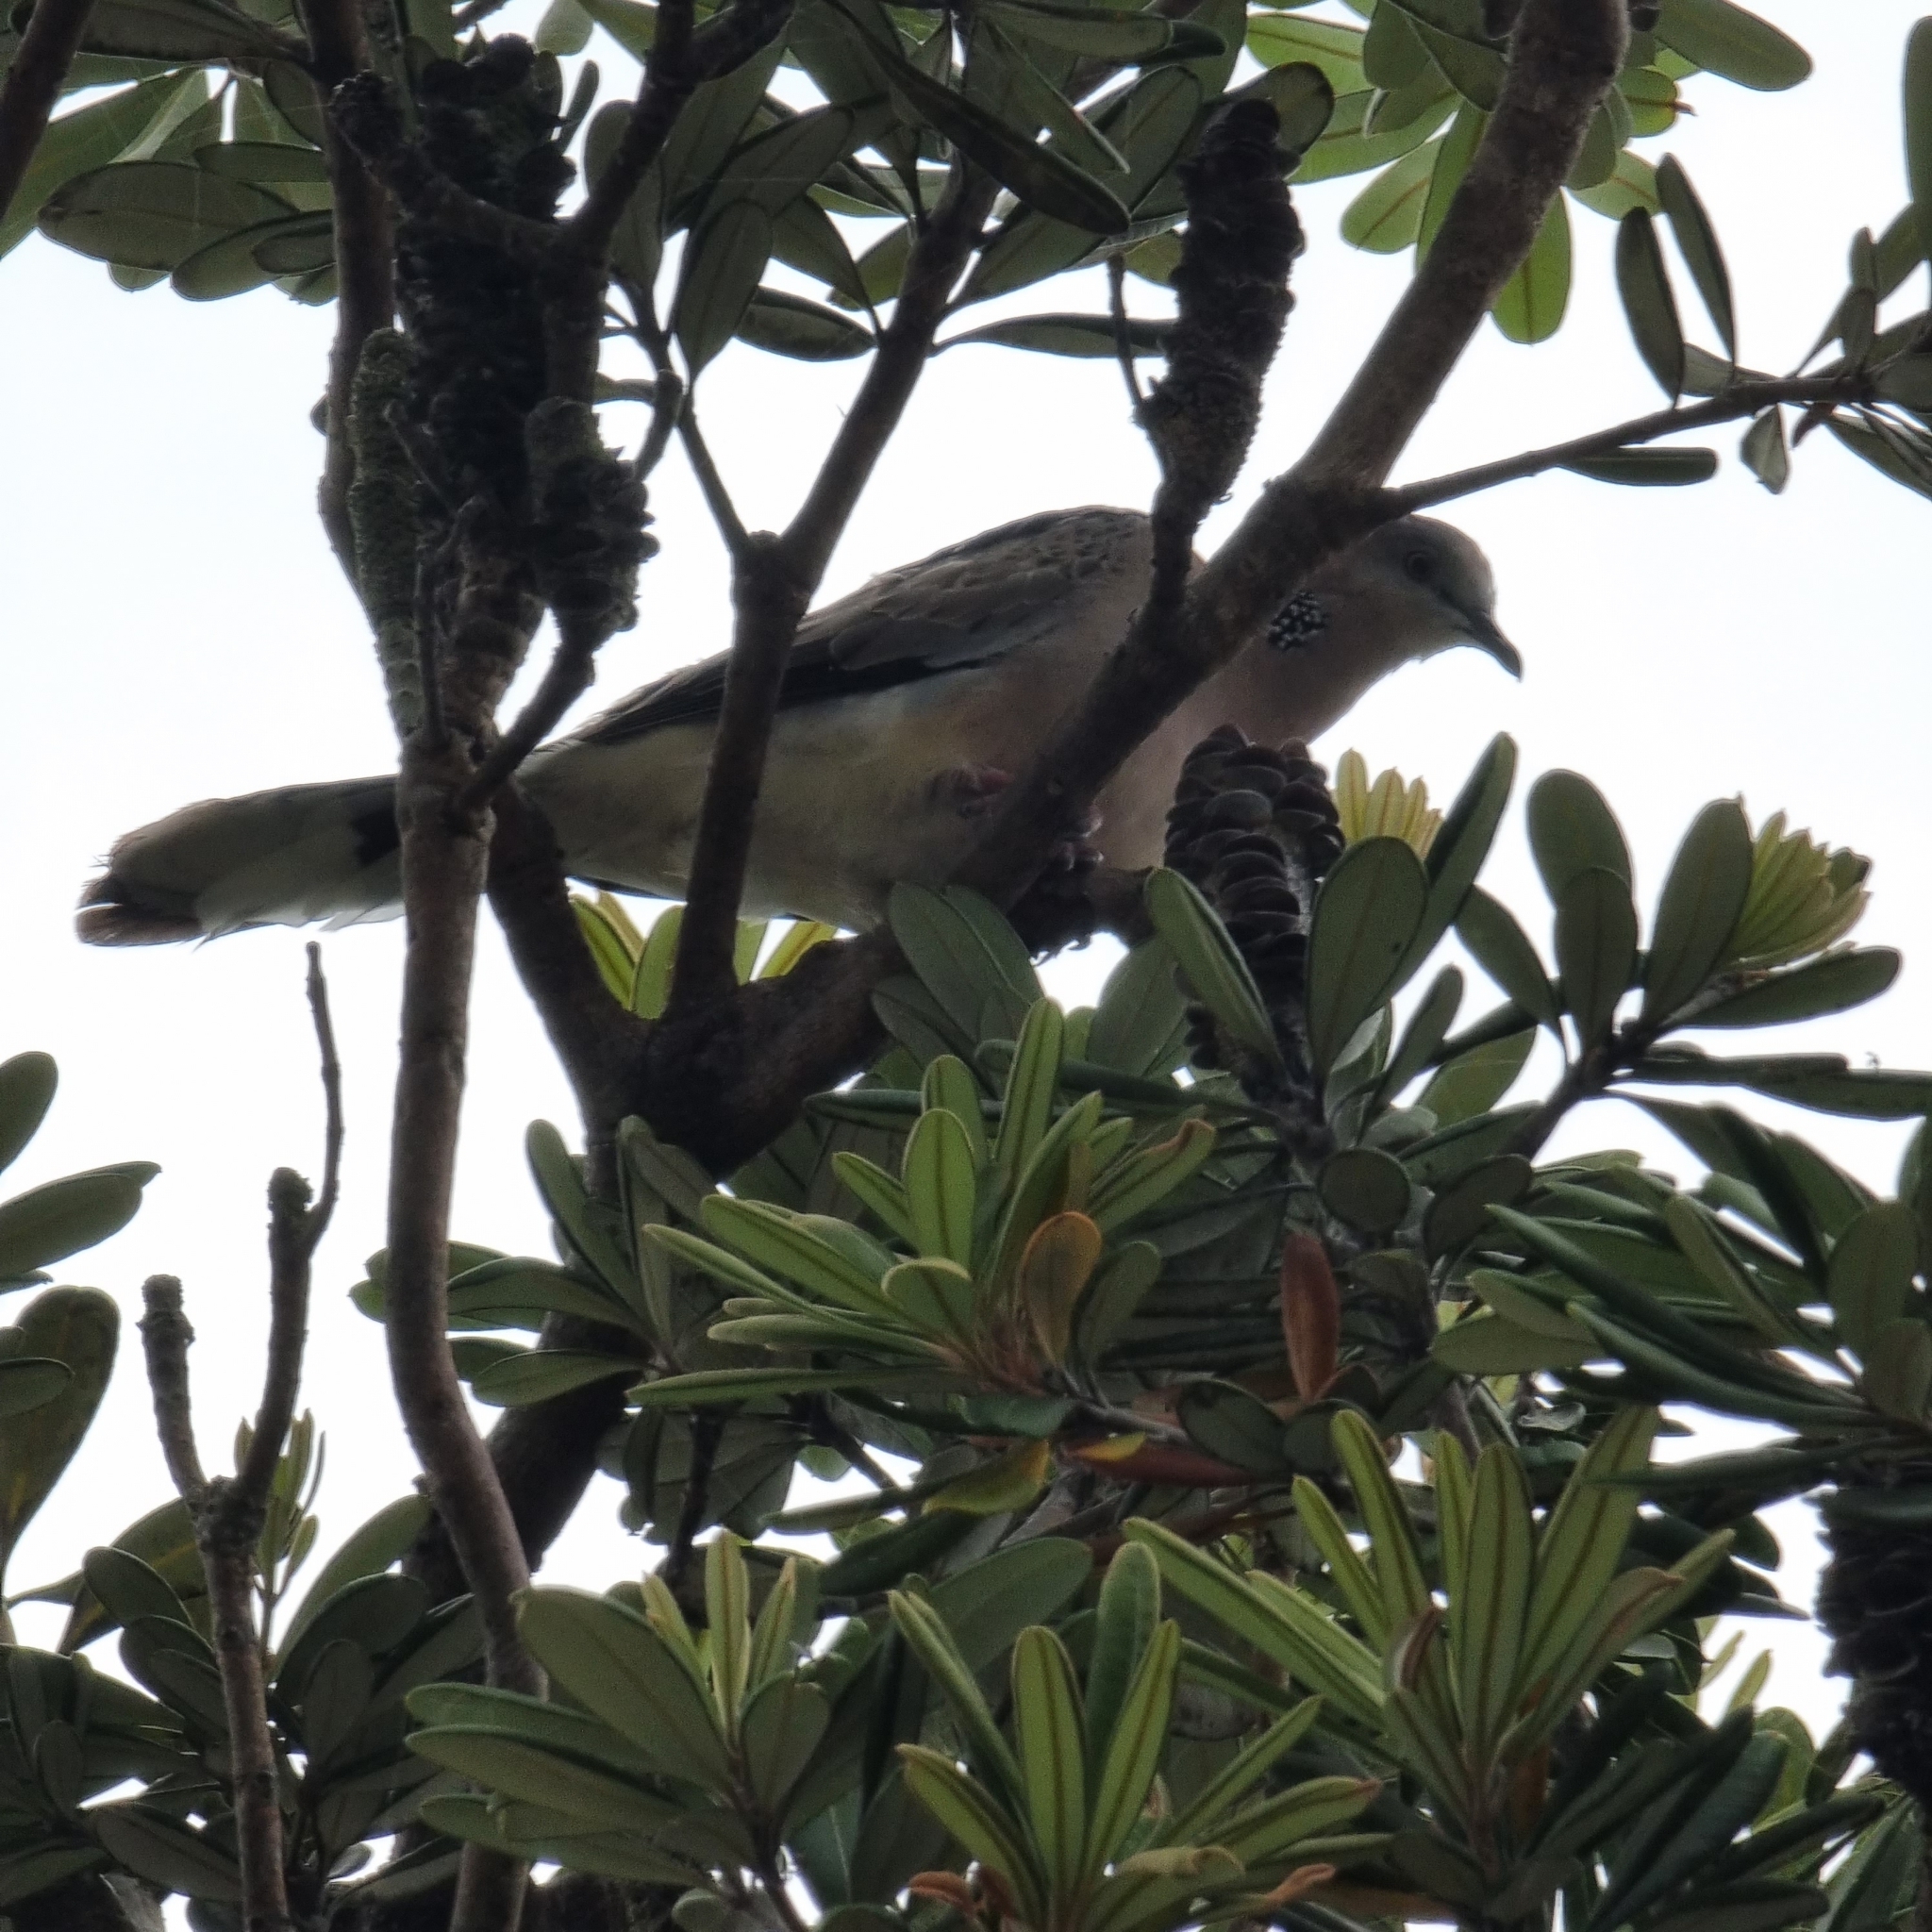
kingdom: Animalia
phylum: Chordata
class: Aves
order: Columbiformes
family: Columbidae
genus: Spilopelia
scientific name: Spilopelia chinensis
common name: Spotted dove
